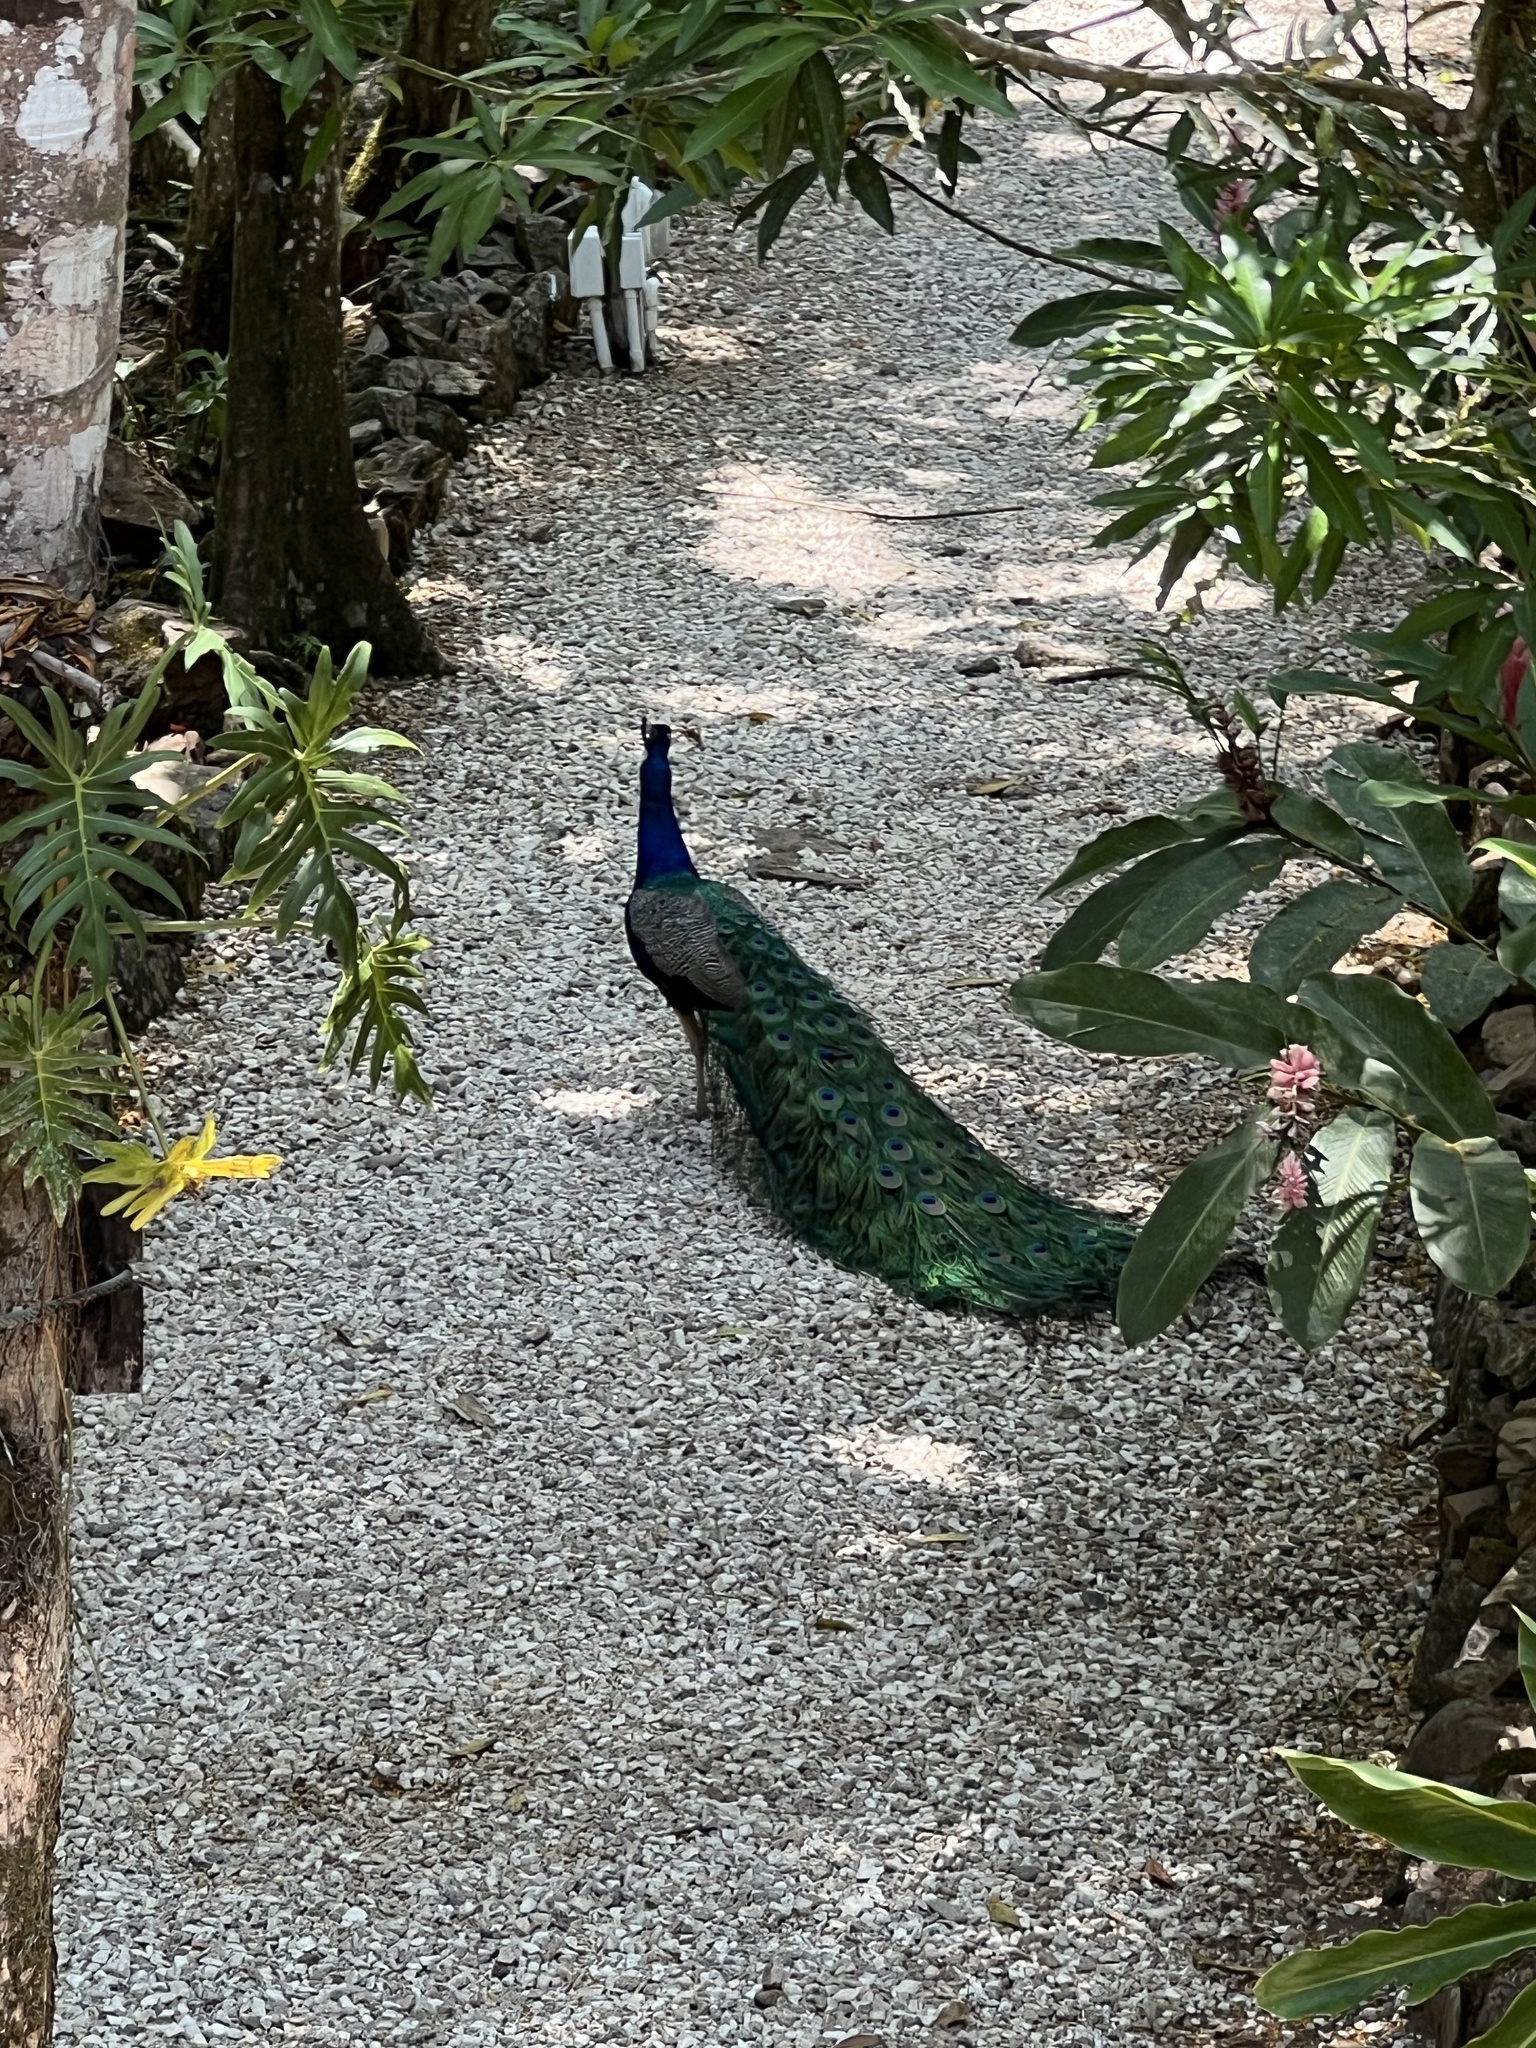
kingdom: Animalia
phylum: Chordata
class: Aves
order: Galliformes
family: Phasianidae
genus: Pavo
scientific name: Pavo cristatus
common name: Indian peafowl
